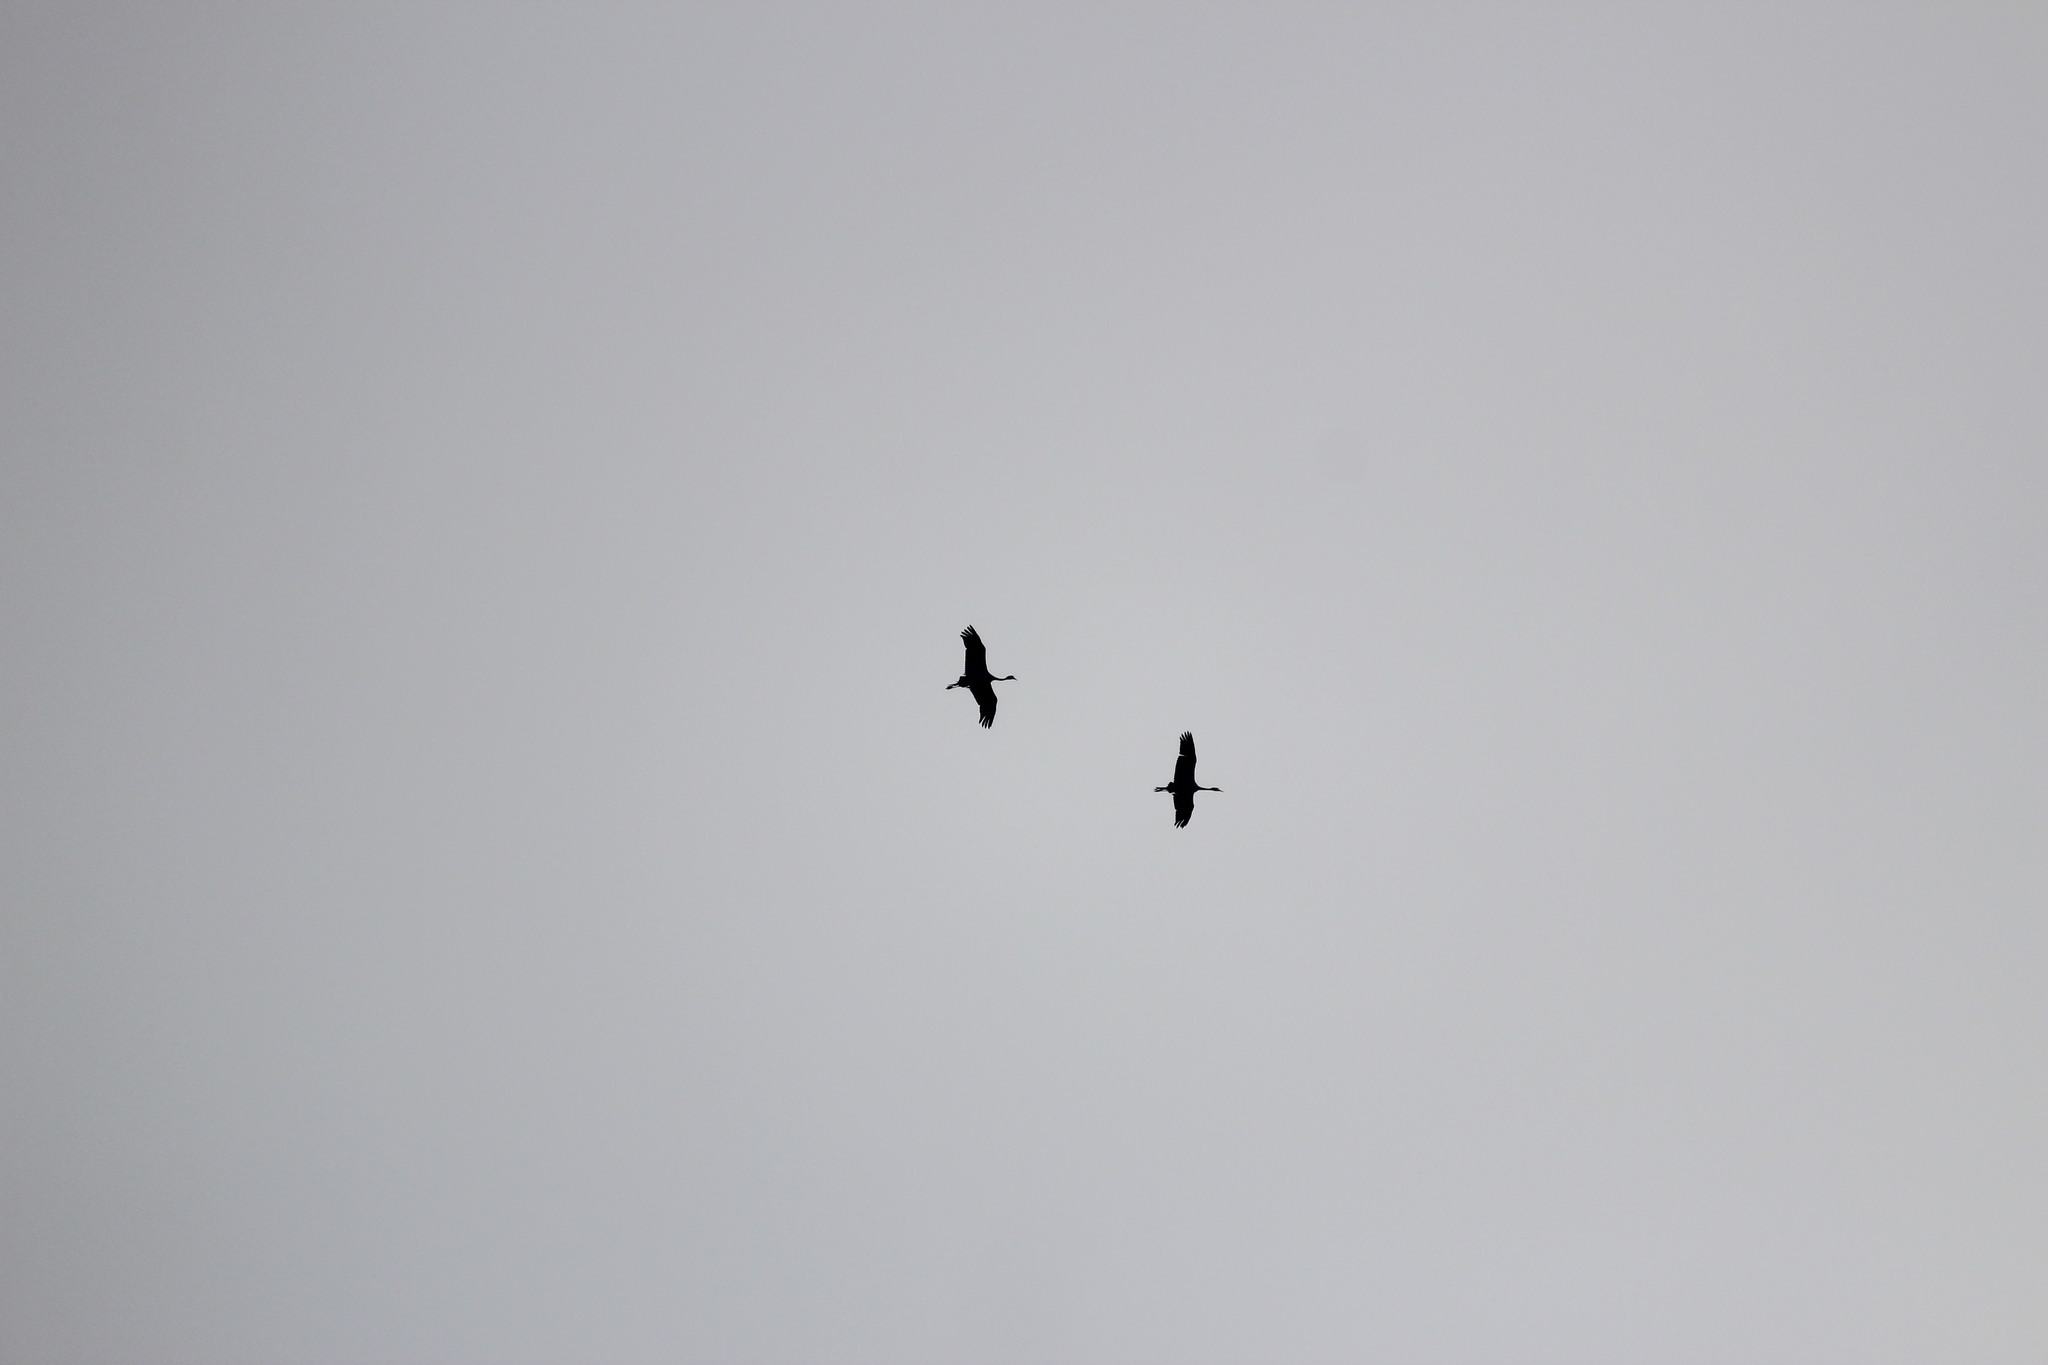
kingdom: Animalia
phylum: Chordata
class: Aves
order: Gruiformes
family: Gruidae
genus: Anthropoides
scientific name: Anthropoides paradiseus
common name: Blue crane
